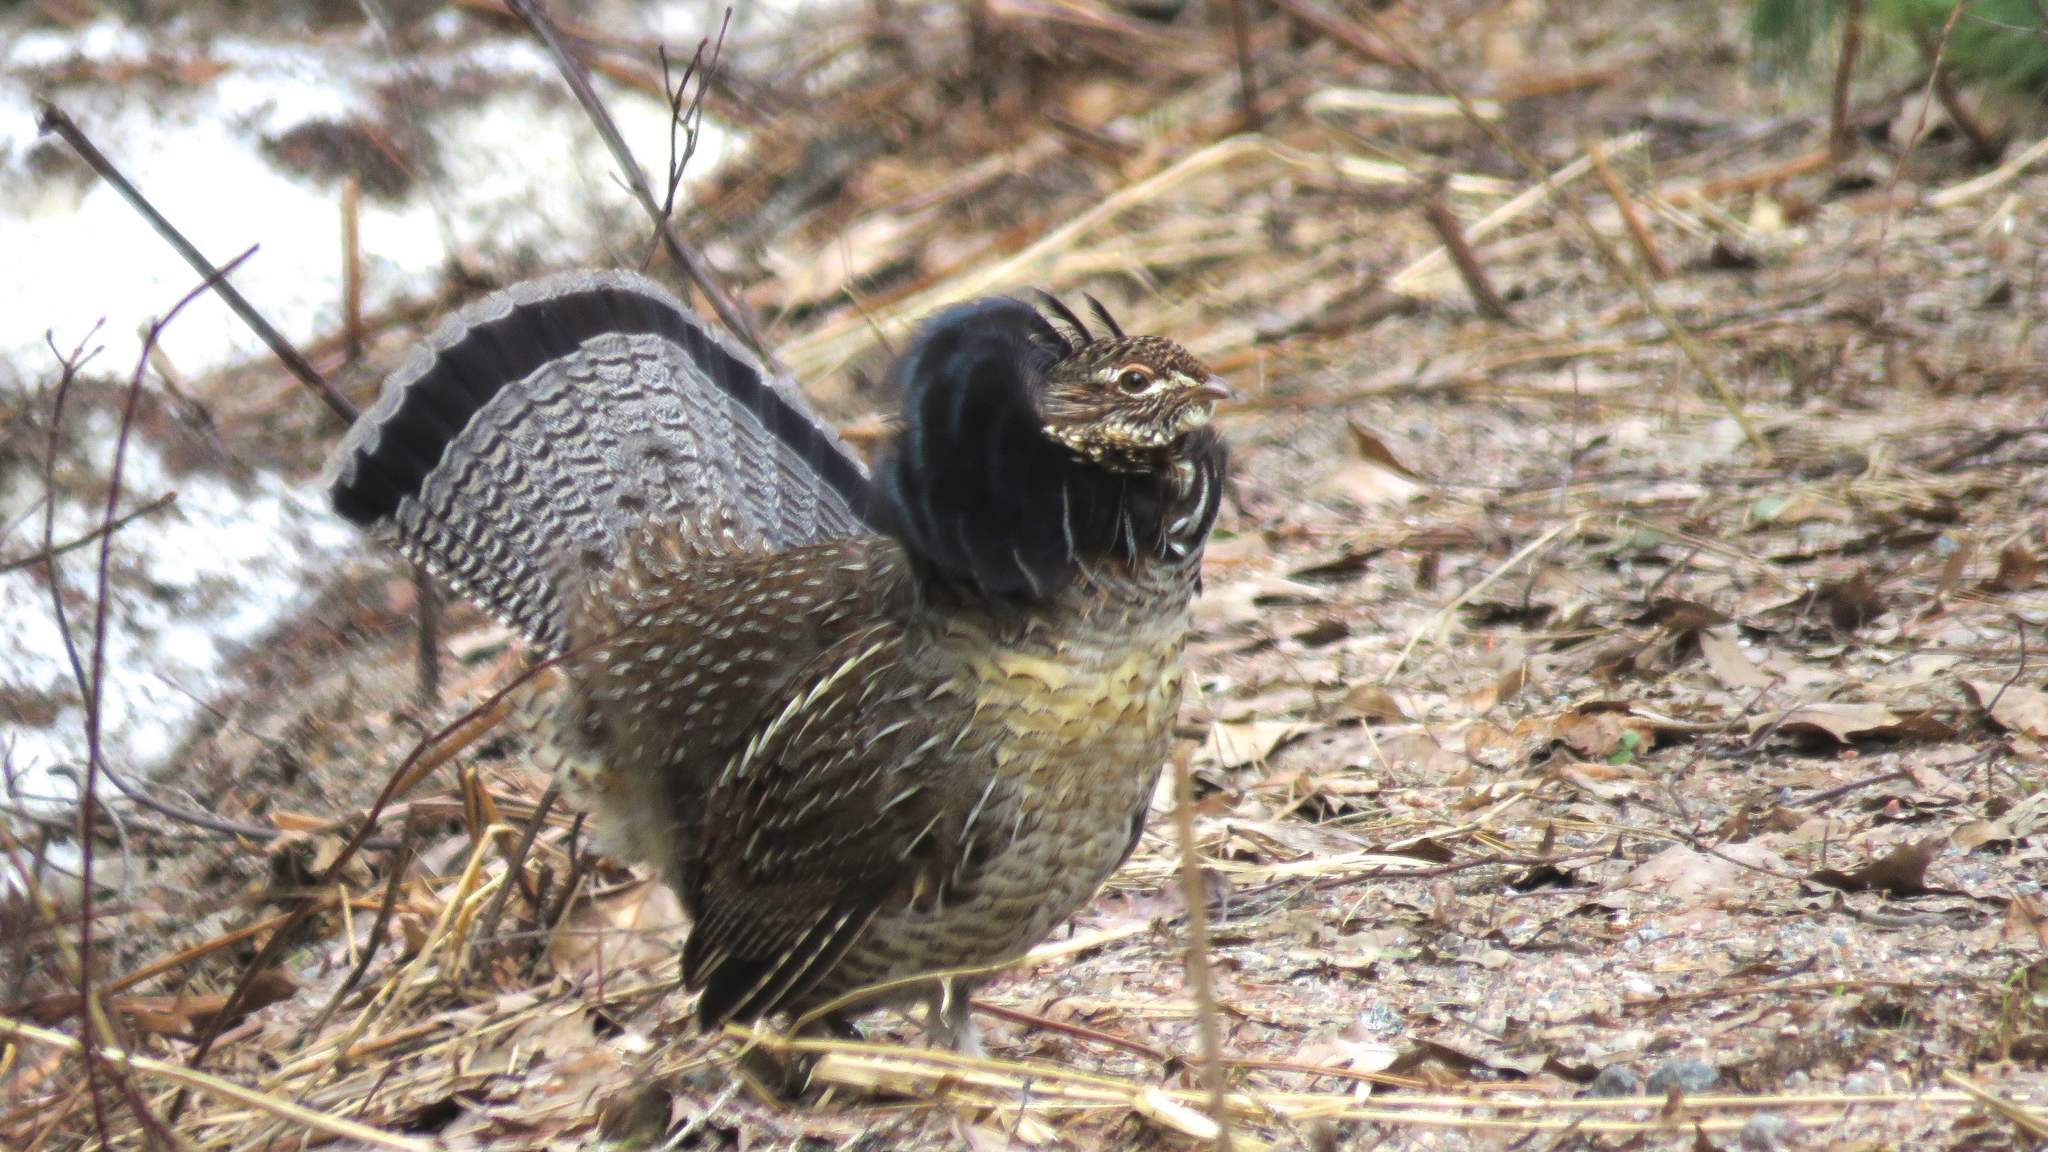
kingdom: Animalia
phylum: Chordata
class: Aves
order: Galliformes
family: Phasianidae
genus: Bonasa
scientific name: Bonasa umbellus
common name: Ruffed grouse
